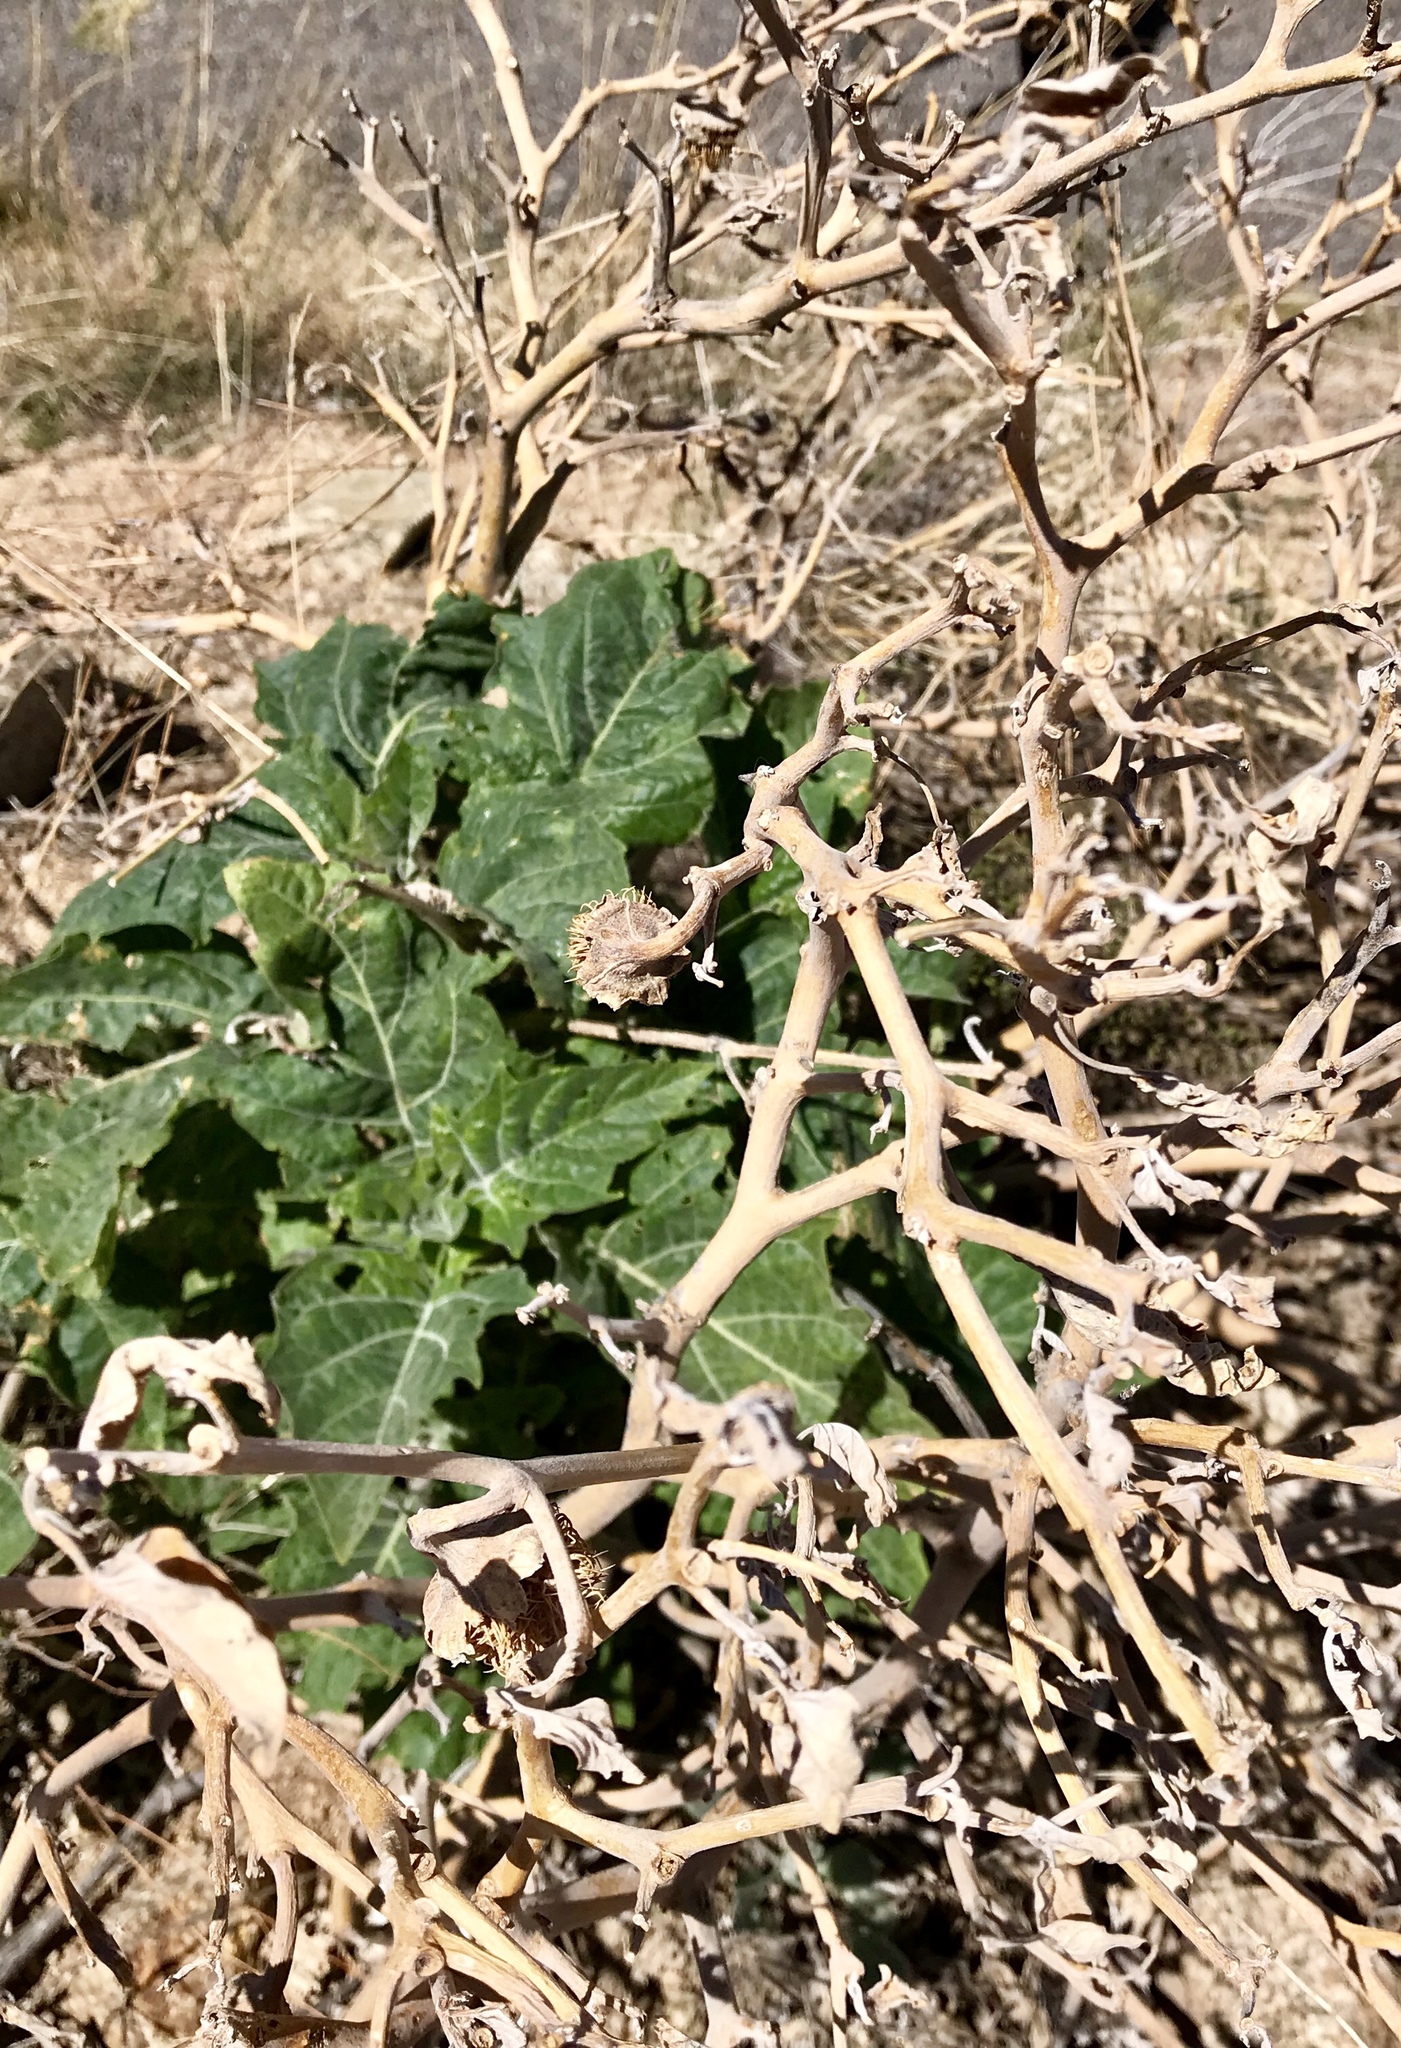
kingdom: Plantae
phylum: Tracheophyta
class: Magnoliopsida
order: Solanales
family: Solanaceae
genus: Datura
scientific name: Datura wrightii
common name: Sacred thorn-apple
